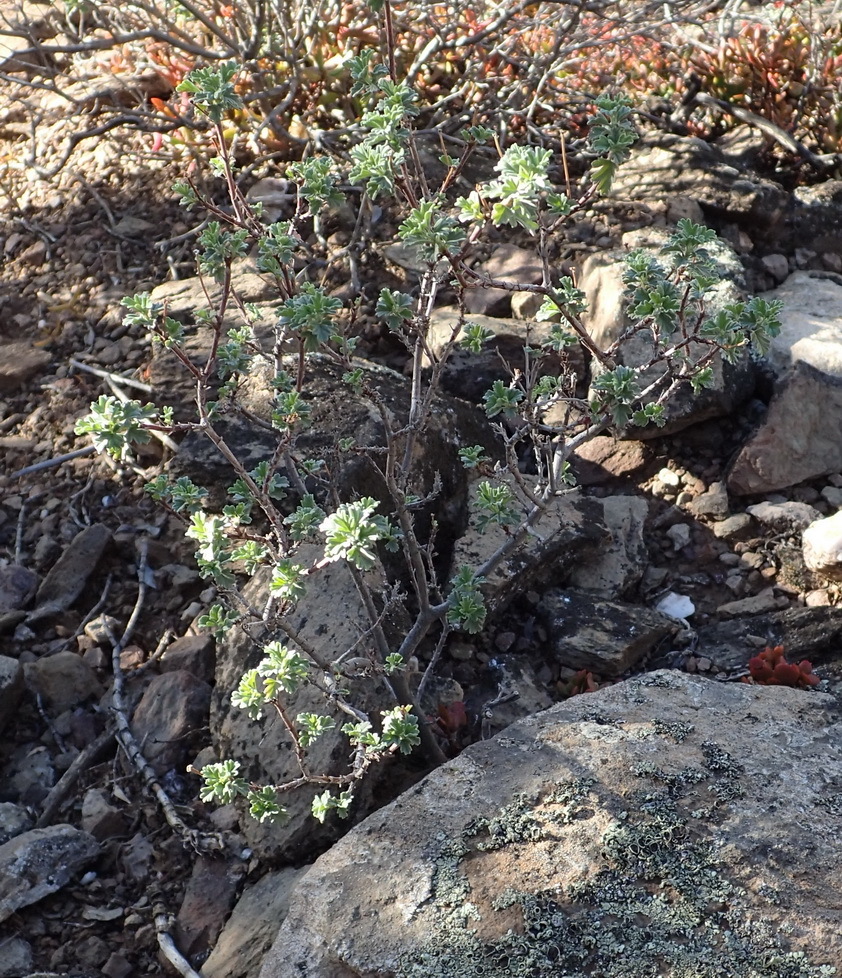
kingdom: Plantae
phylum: Tracheophyta
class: Magnoliopsida
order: Geraniales
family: Geraniaceae
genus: Pelargonium
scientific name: Pelargonium exstipulatum
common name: Soft-leaf trifid pelargonium
